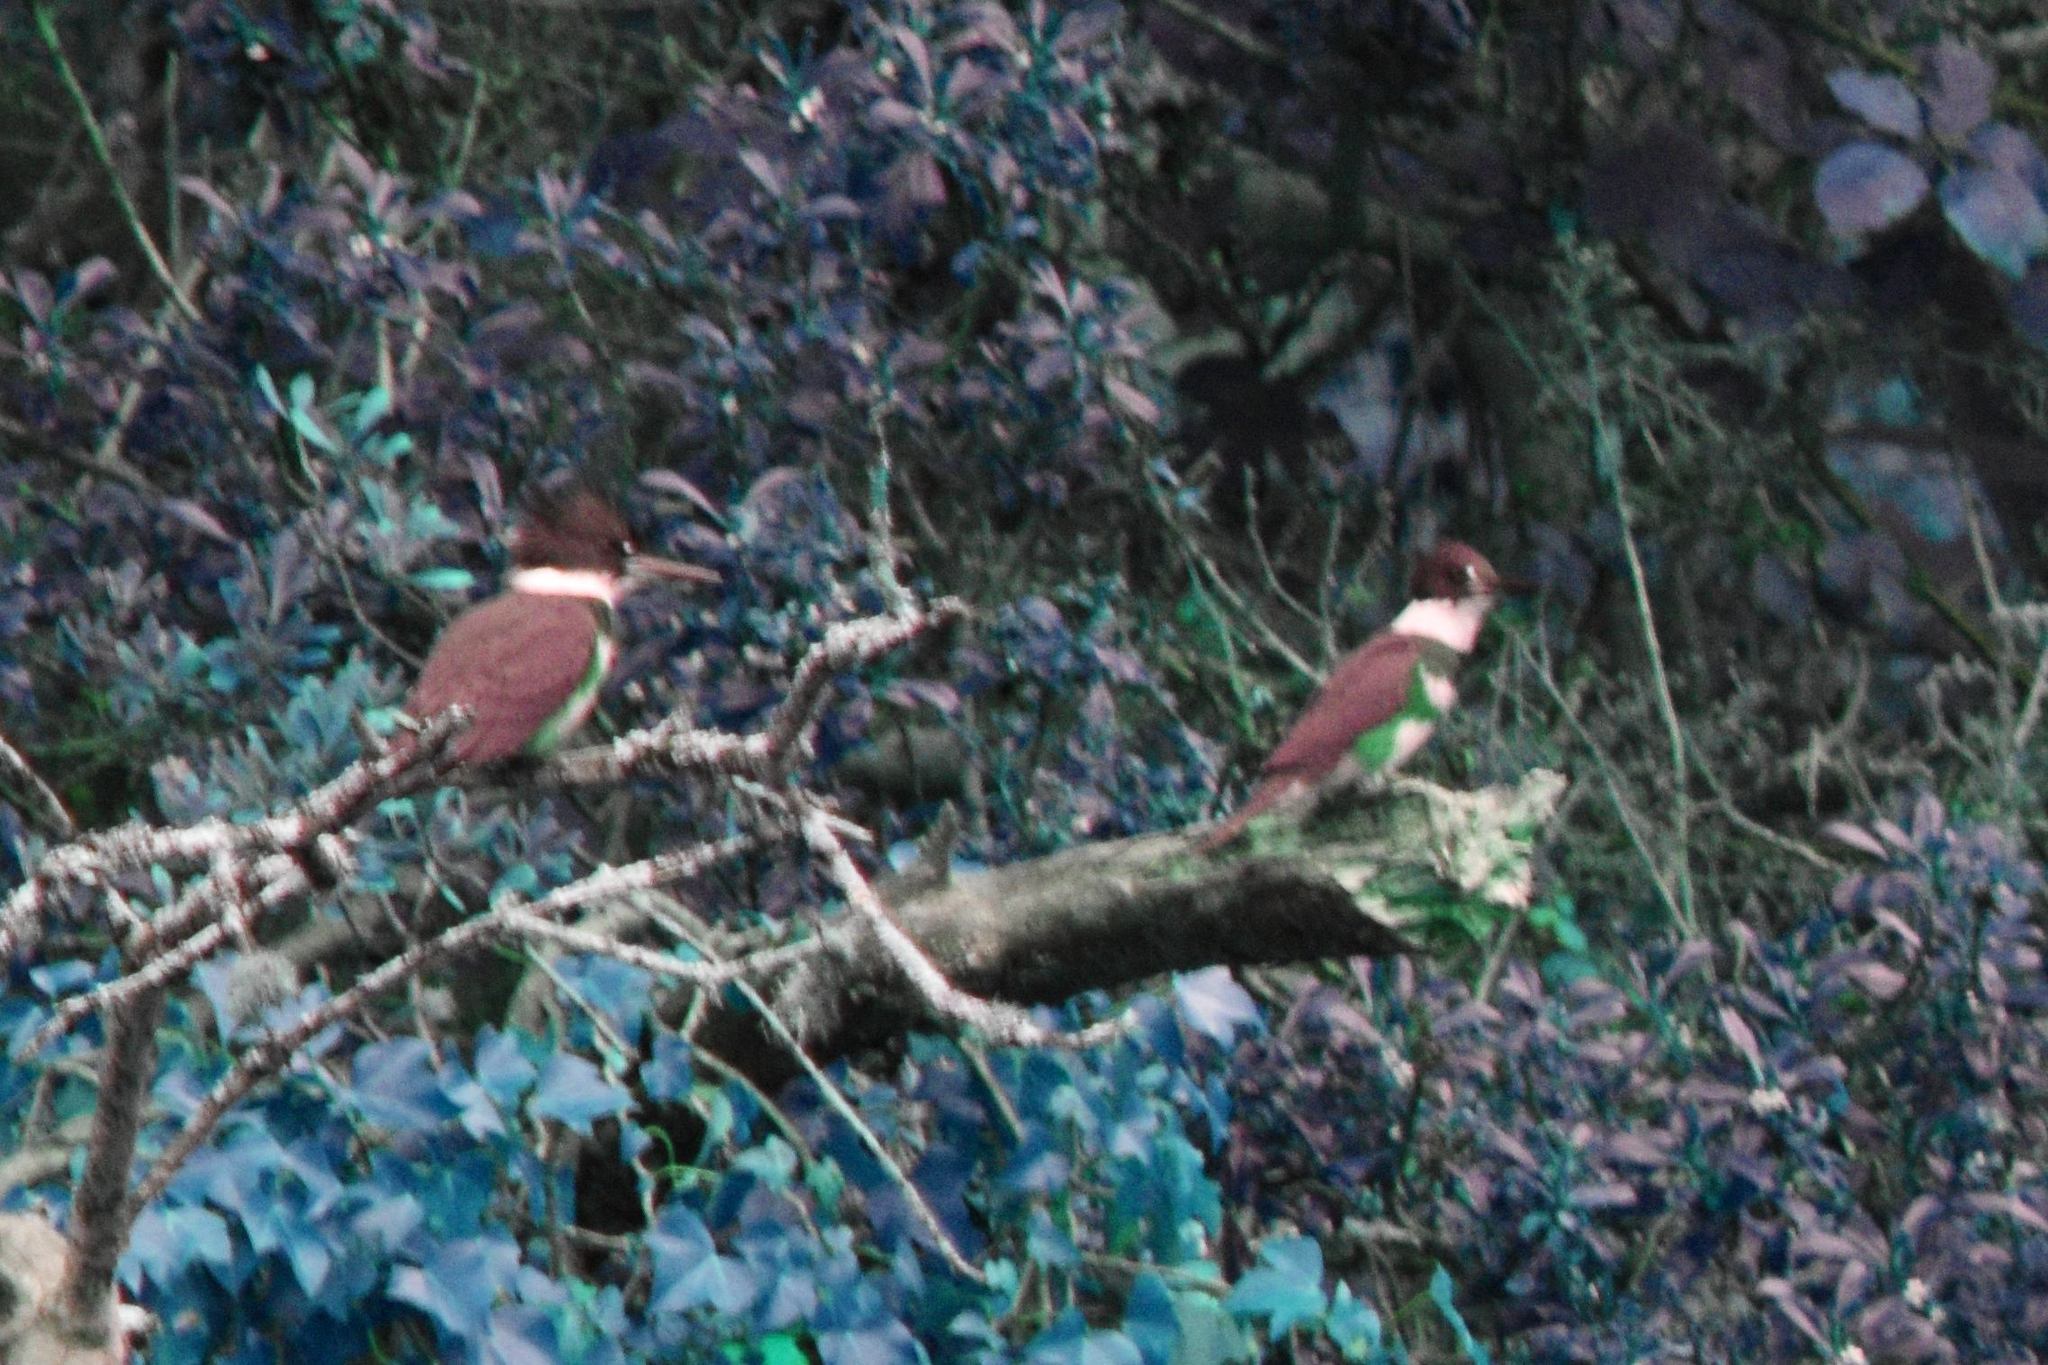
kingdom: Animalia
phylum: Chordata
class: Aves
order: Coraciiformes
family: Alcedinidae
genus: Megaceryle
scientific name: Megaceryle alcyon
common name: Belted kingfisher
